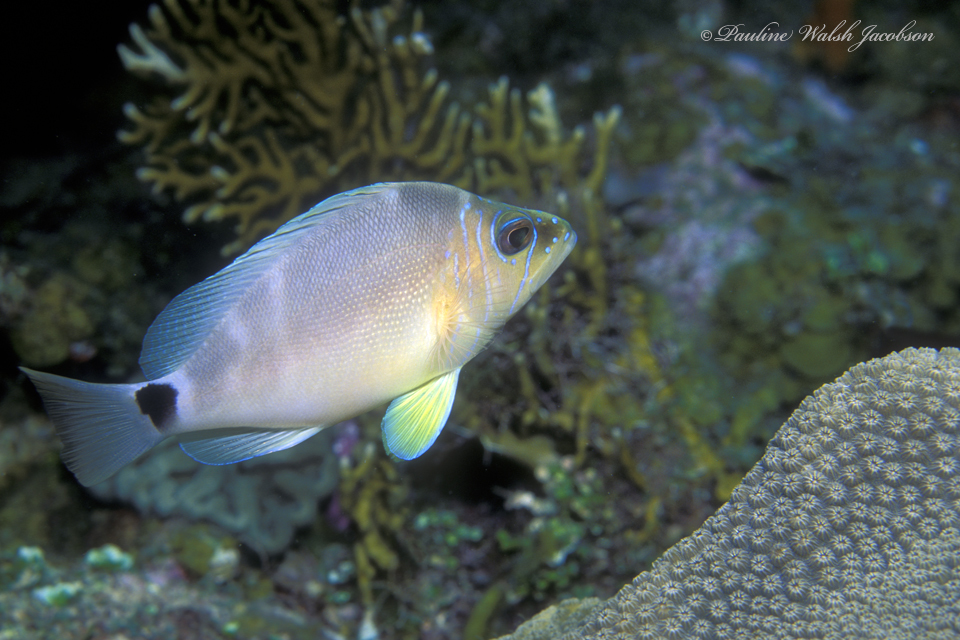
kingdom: Animalia
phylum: Chordata
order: Perciformes
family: Serranidae
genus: Hypoplectrus
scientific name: Hypoplectrus unicolor
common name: Butter hamlet
